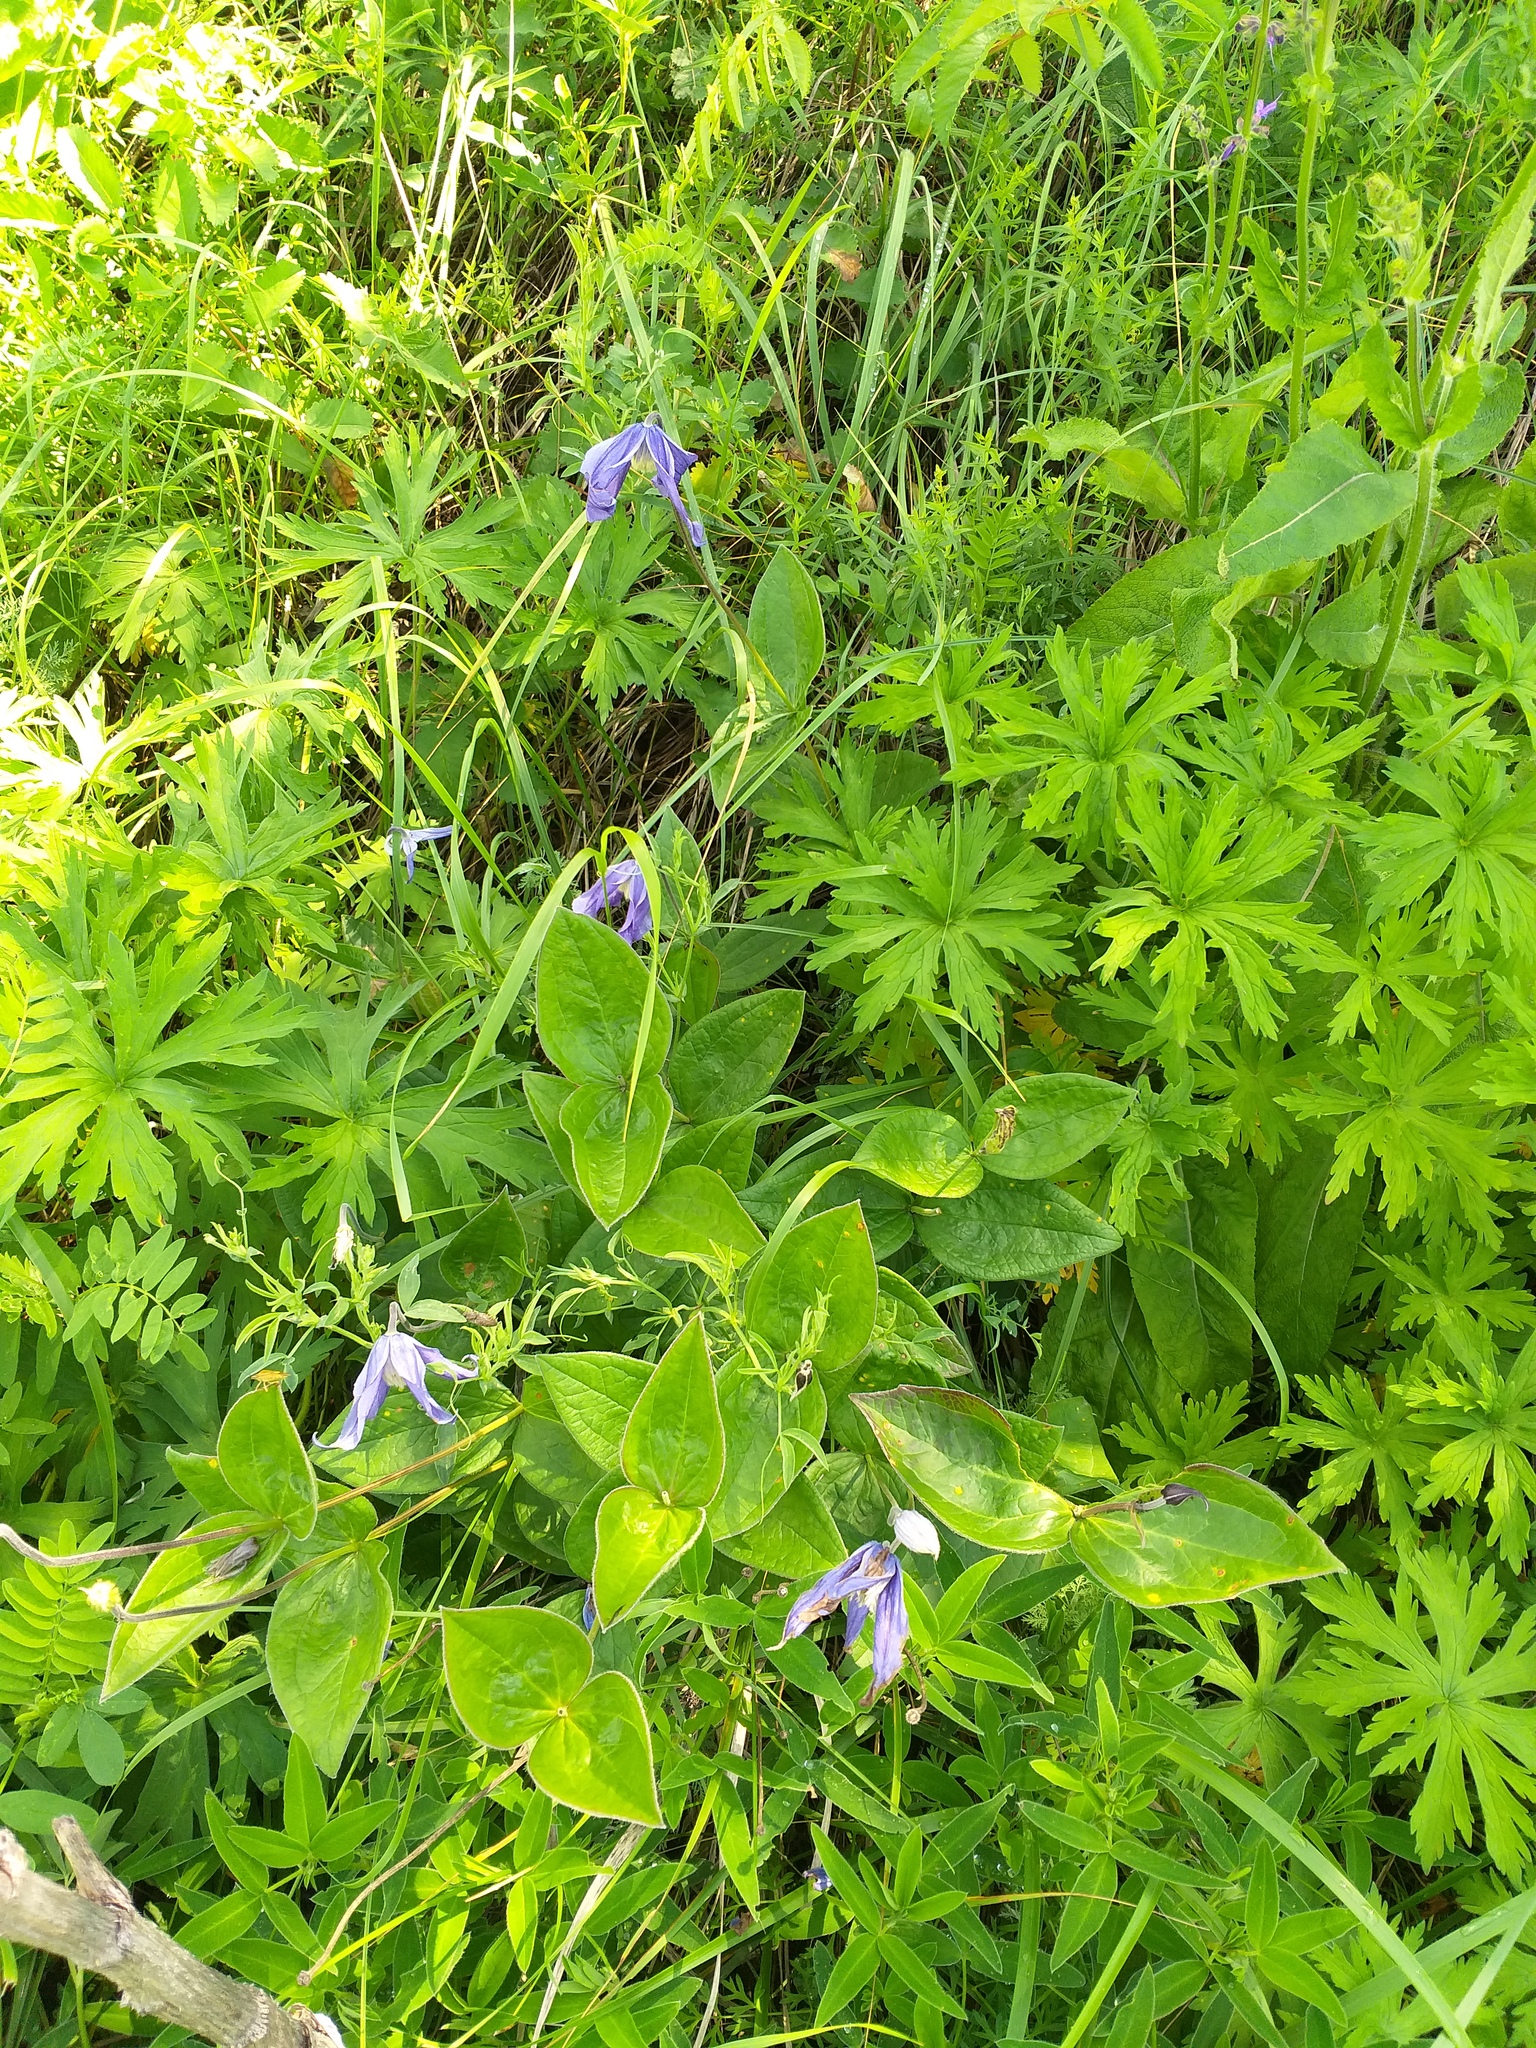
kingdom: Plantae
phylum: Tracheophyta
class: Magnoliopsida
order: Ranunculales
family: Ranunculaceae
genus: Clematis
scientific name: Clematis integrifolia
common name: Solitary clematis
